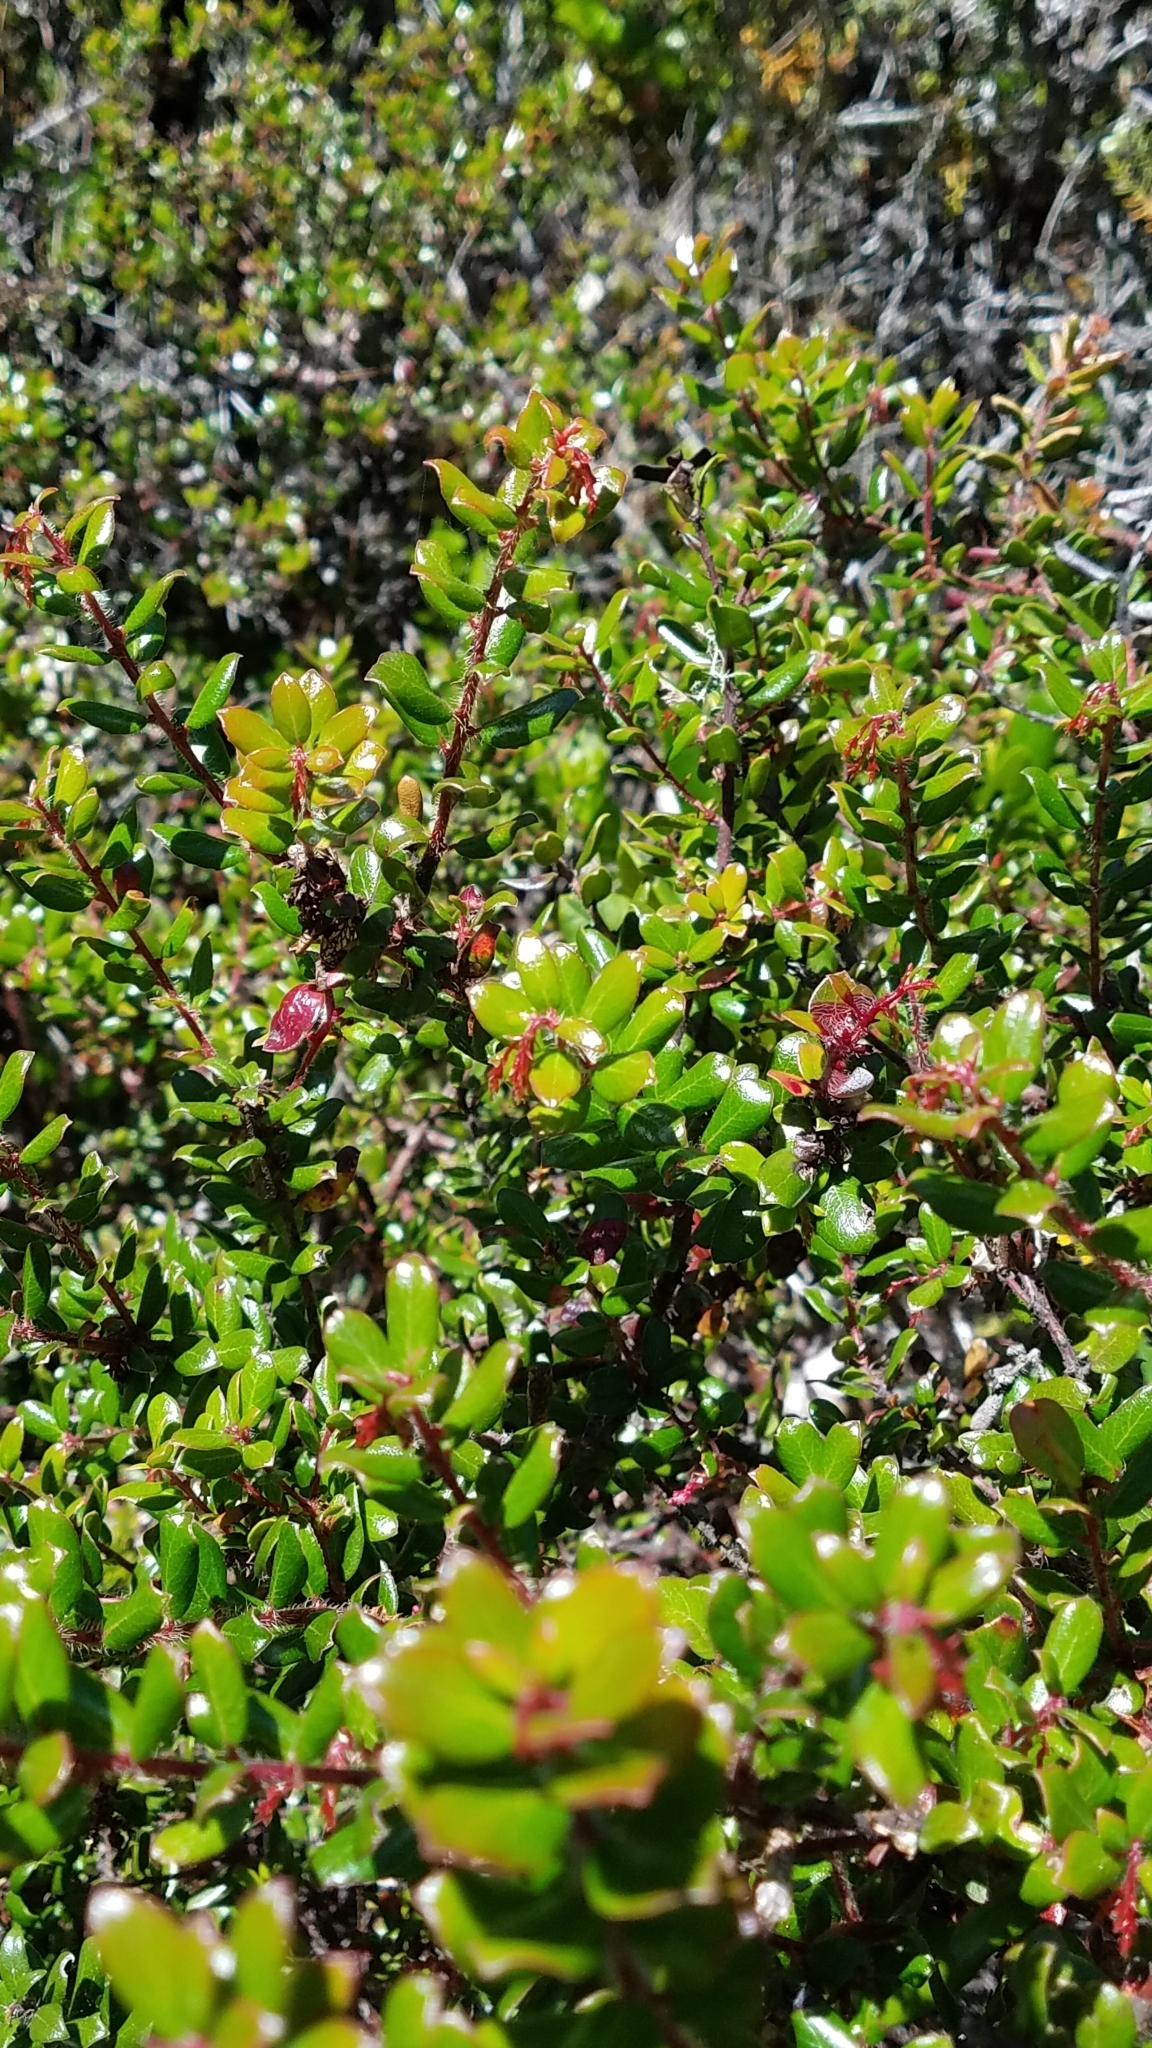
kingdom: Plantae
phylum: Tracheophyta
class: Magnoliopsida
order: Ericales
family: Ericaceae
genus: Arctostaphylos
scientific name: Arctostaphylos nummularia
